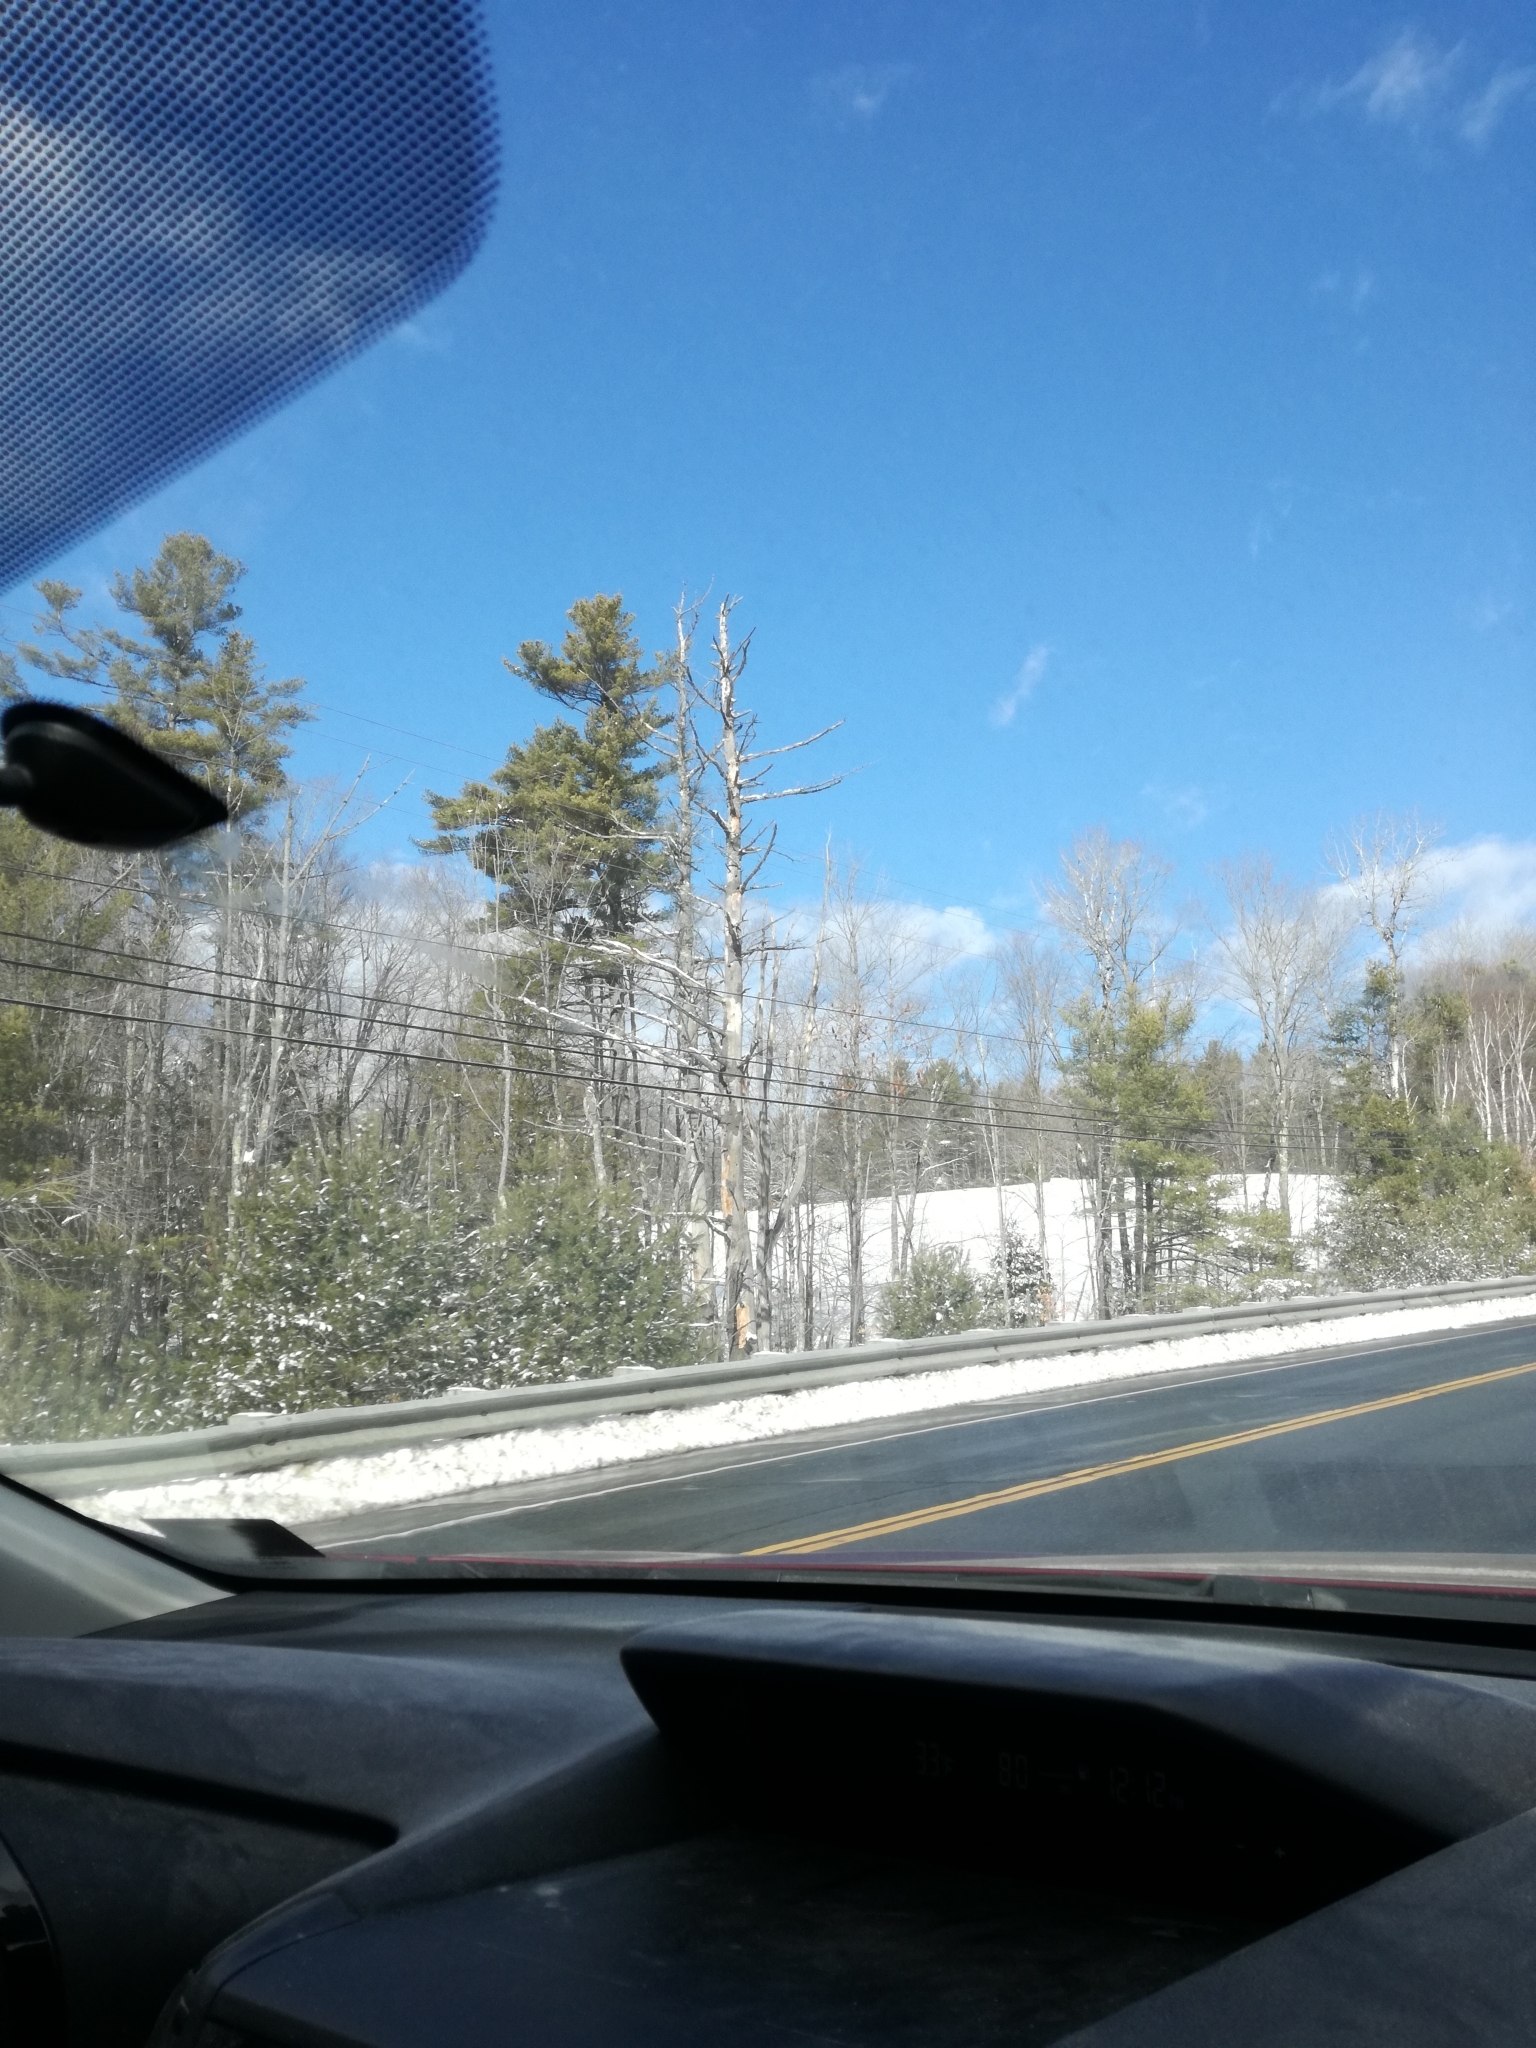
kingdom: Plantae
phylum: Tracheophyta
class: Pinopsida
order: Pinales
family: Pinaceae
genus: Pinus
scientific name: Pinus strobus
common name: Weymouth pine
